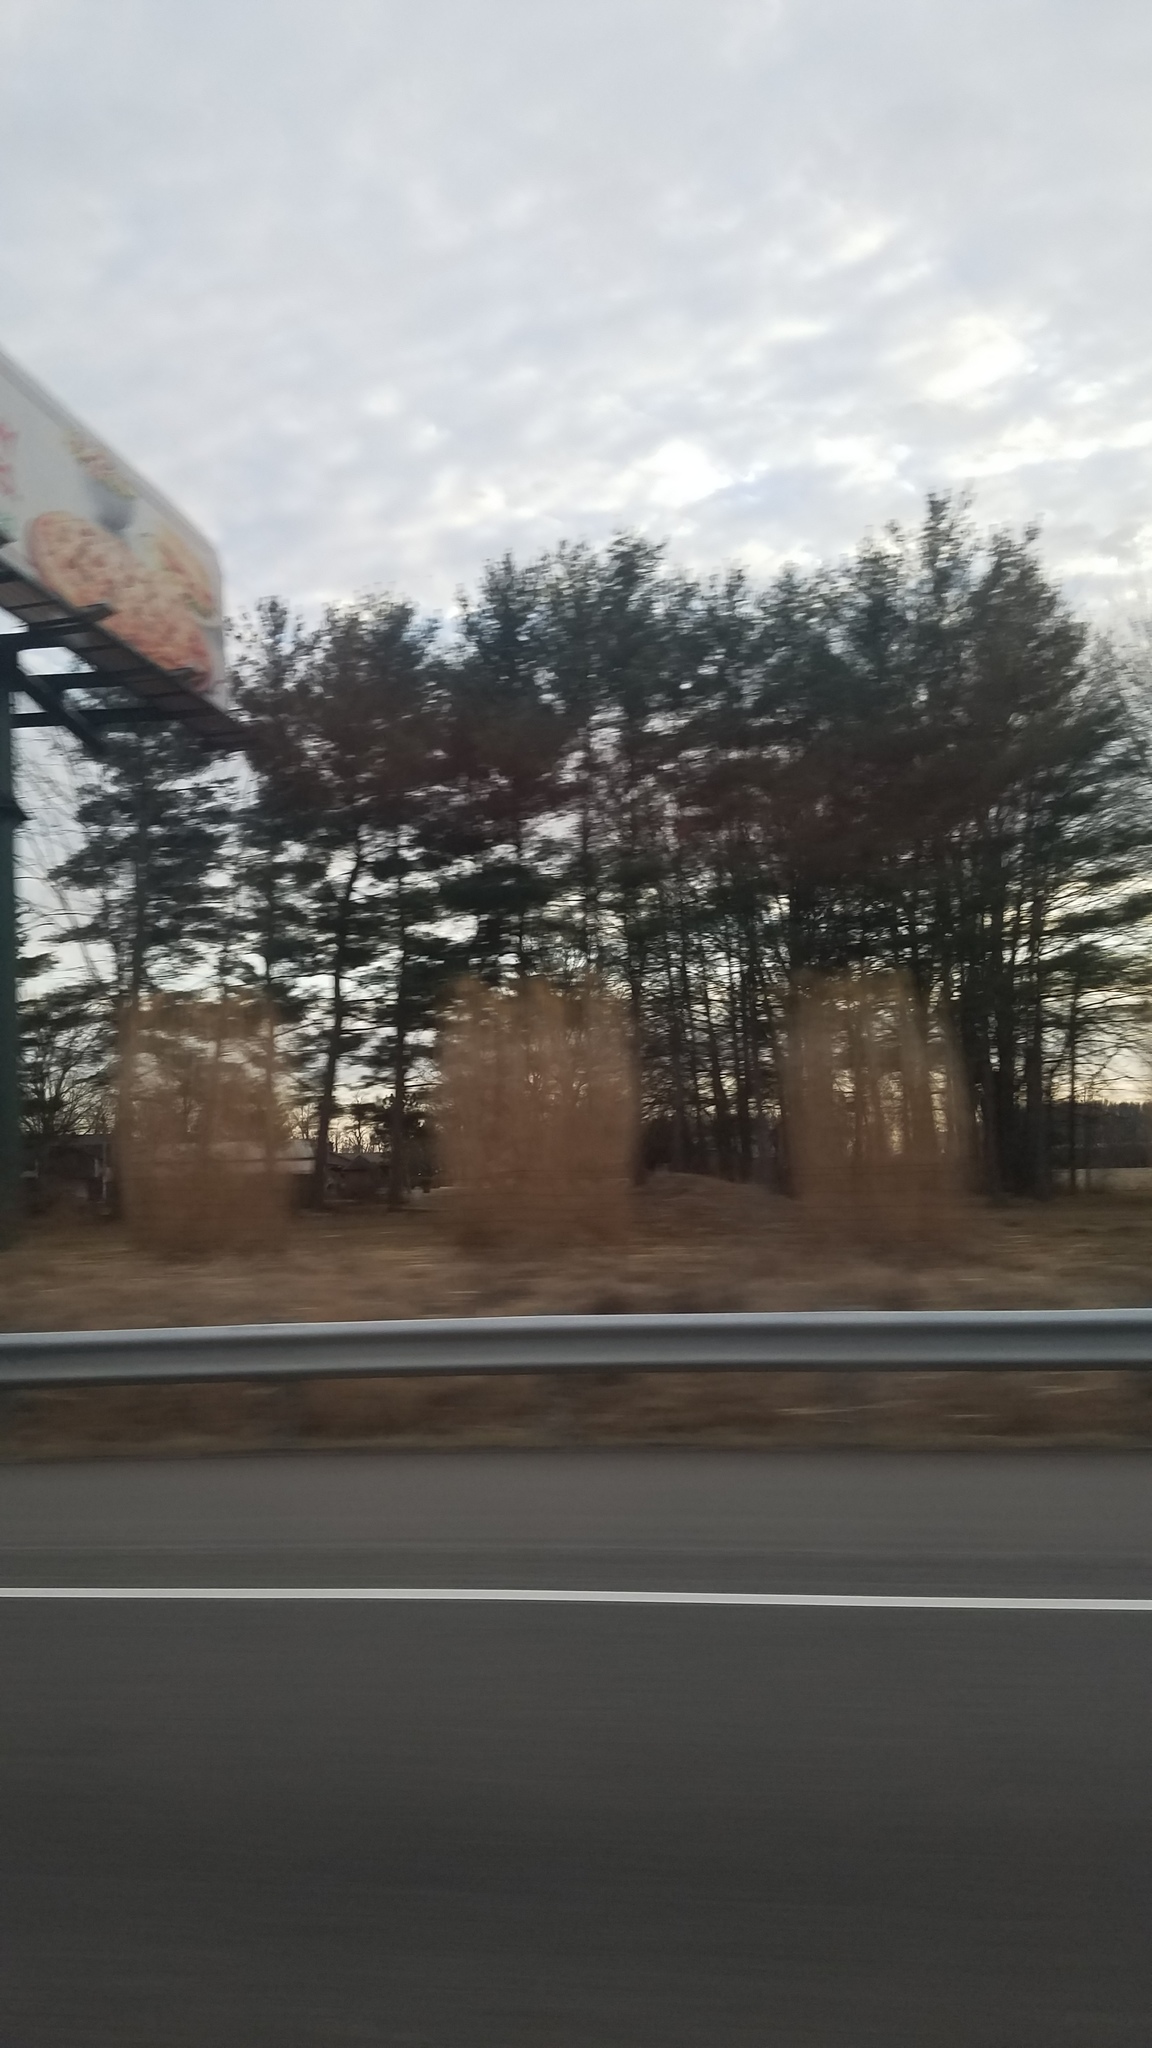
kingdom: Plantae
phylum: Tracheophyta
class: Pinopsida
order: Pinales
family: Pinaceae
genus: Pinus
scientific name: Pinus strobus
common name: Weymouth pine
